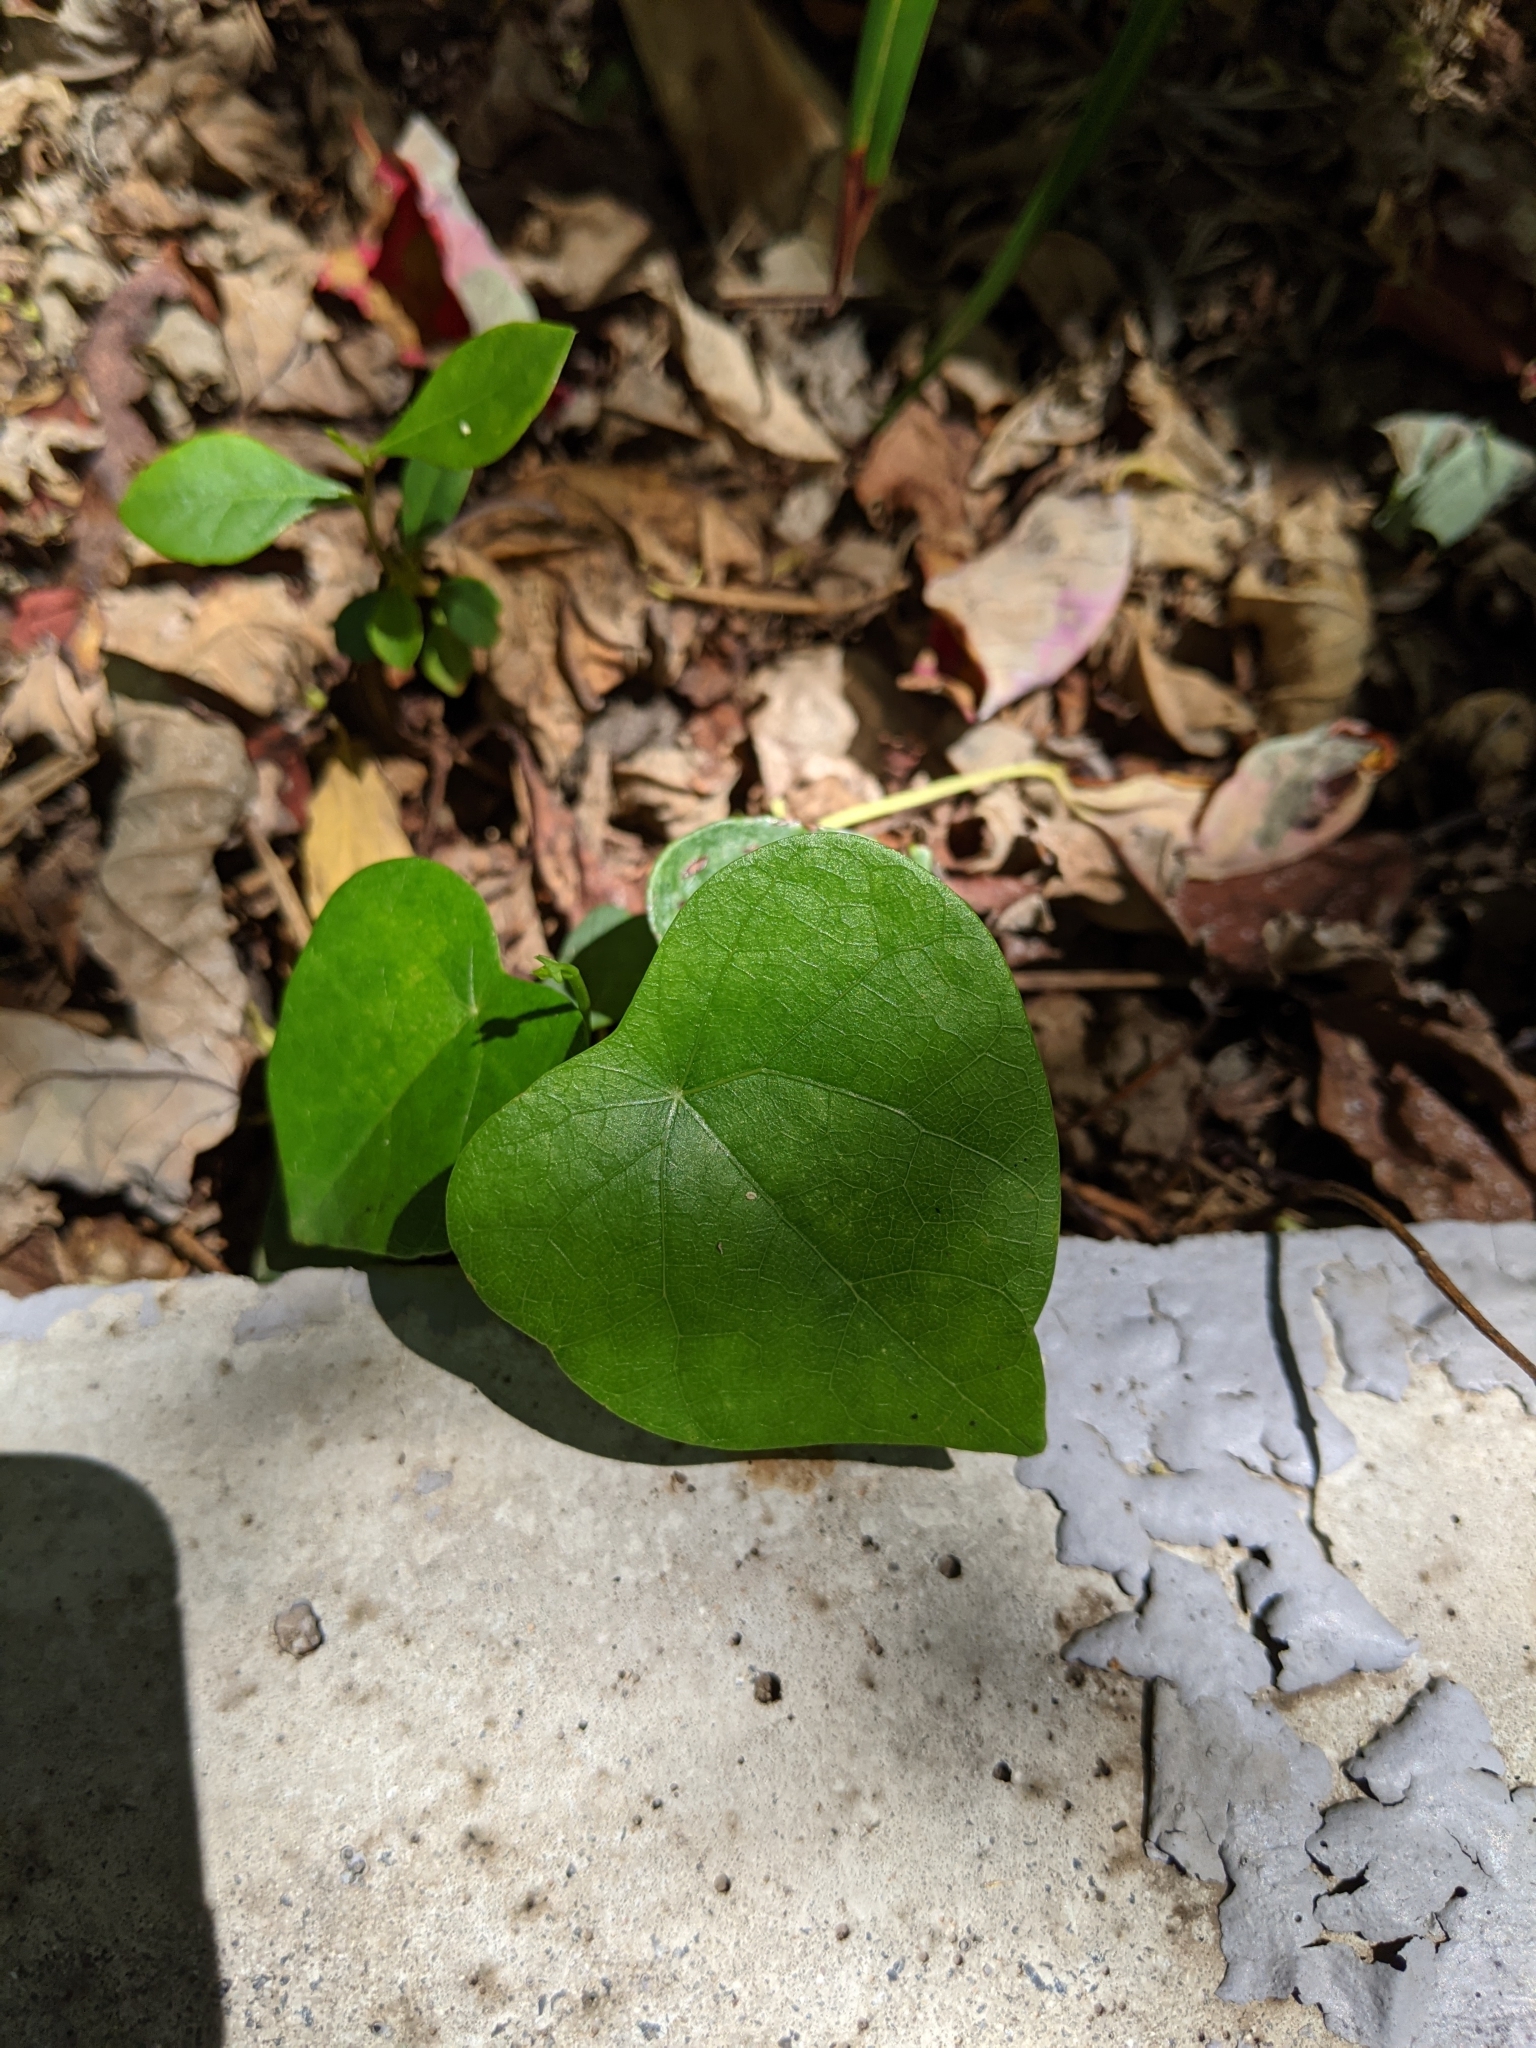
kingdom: Plantae
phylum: Tracheophyta
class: Magnoliopsida
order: Ranunculales
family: Menispermaceae
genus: Stephania
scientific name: Stephania japonica
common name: Snake vine
